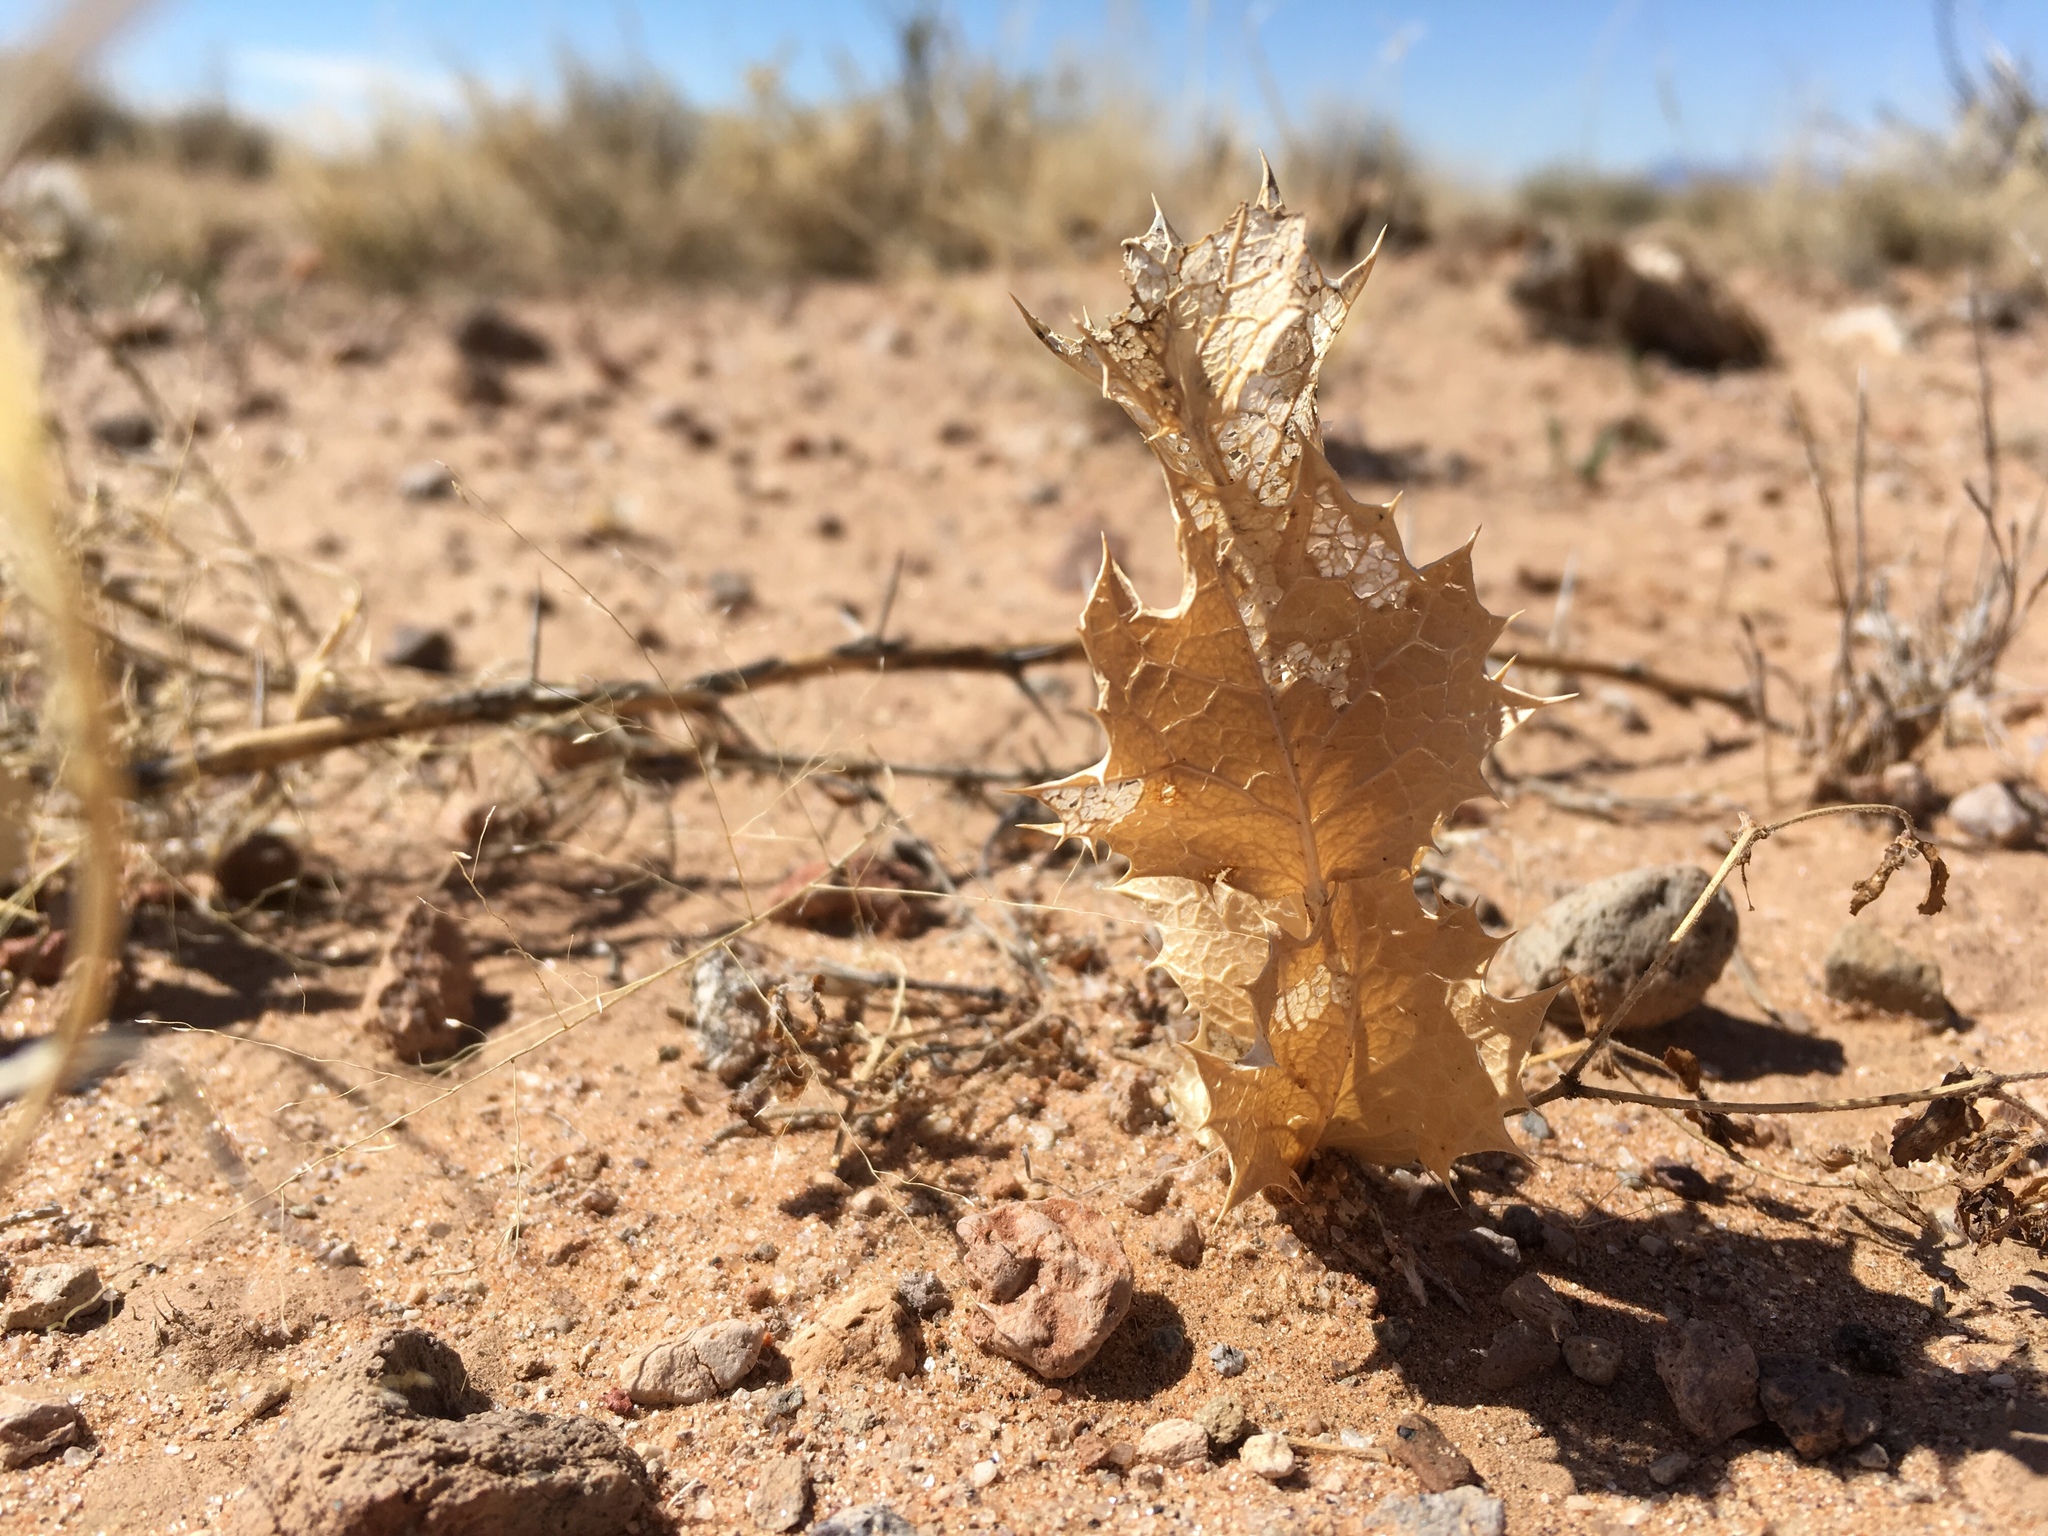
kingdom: Plantae
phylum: Tracheophyta
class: Magnoliopsida
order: Asterales
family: Asteraceae
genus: Acourtia
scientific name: Acourtia nana
